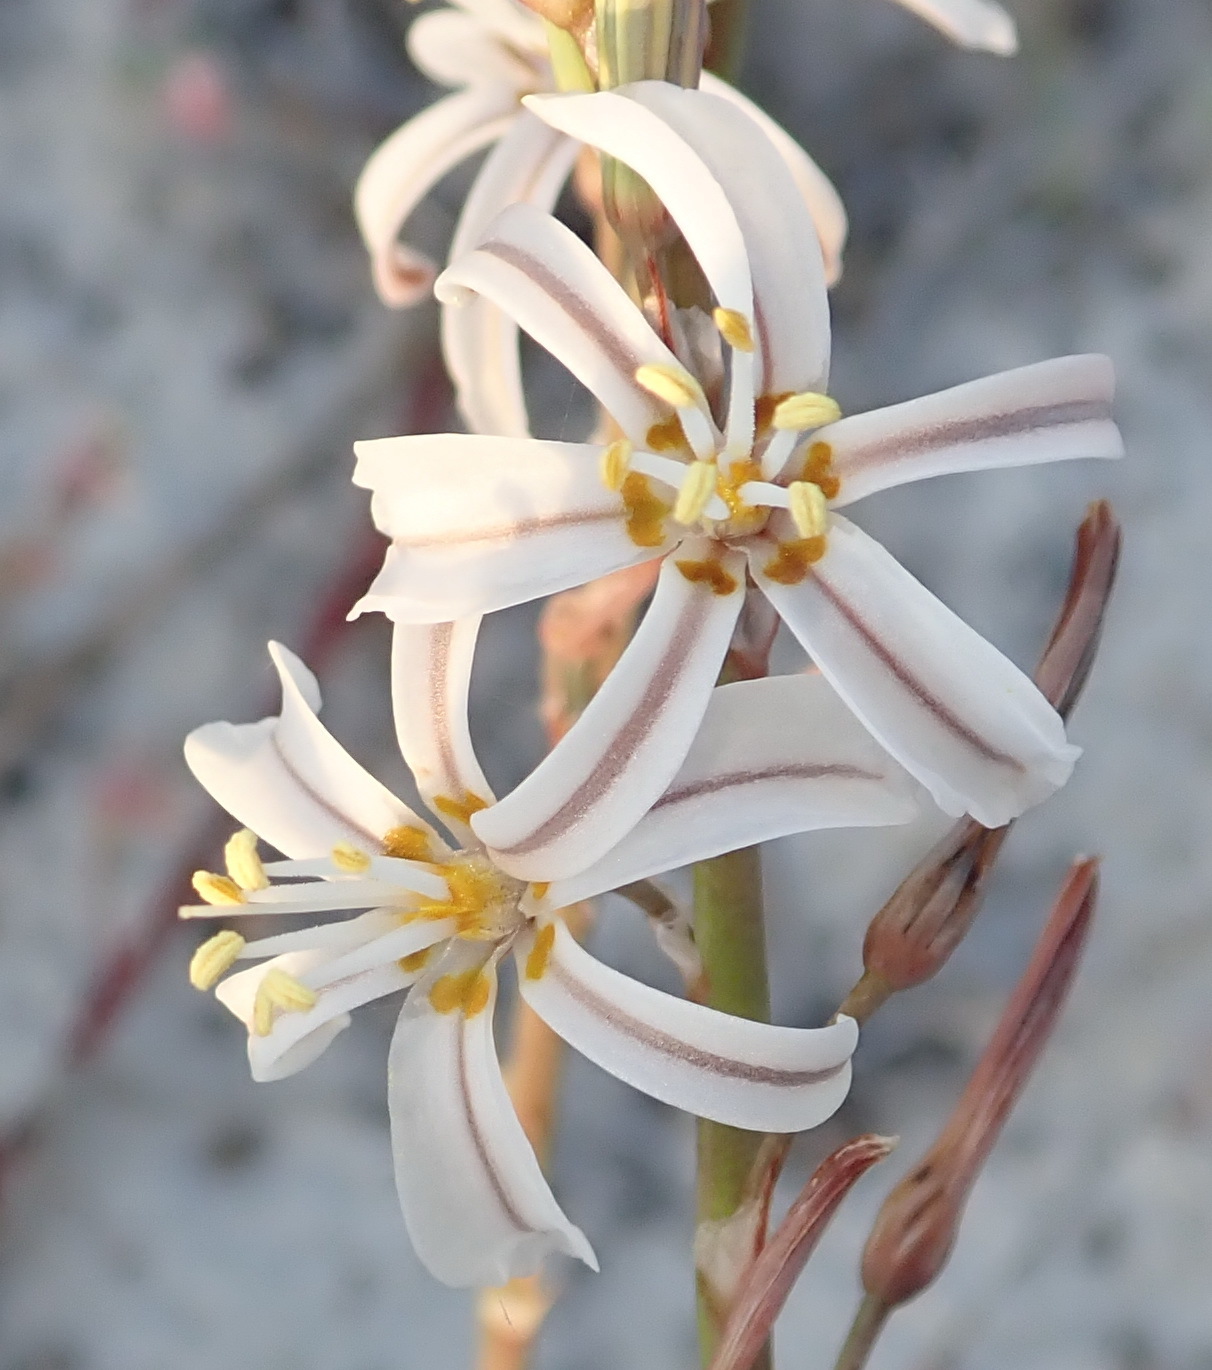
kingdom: Plantae
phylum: Tracheophyta
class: Liliopsida
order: Asparagales
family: Asphodelaceae
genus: Trachyandra
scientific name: Trachyandra divaricata
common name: Dune onionweed
